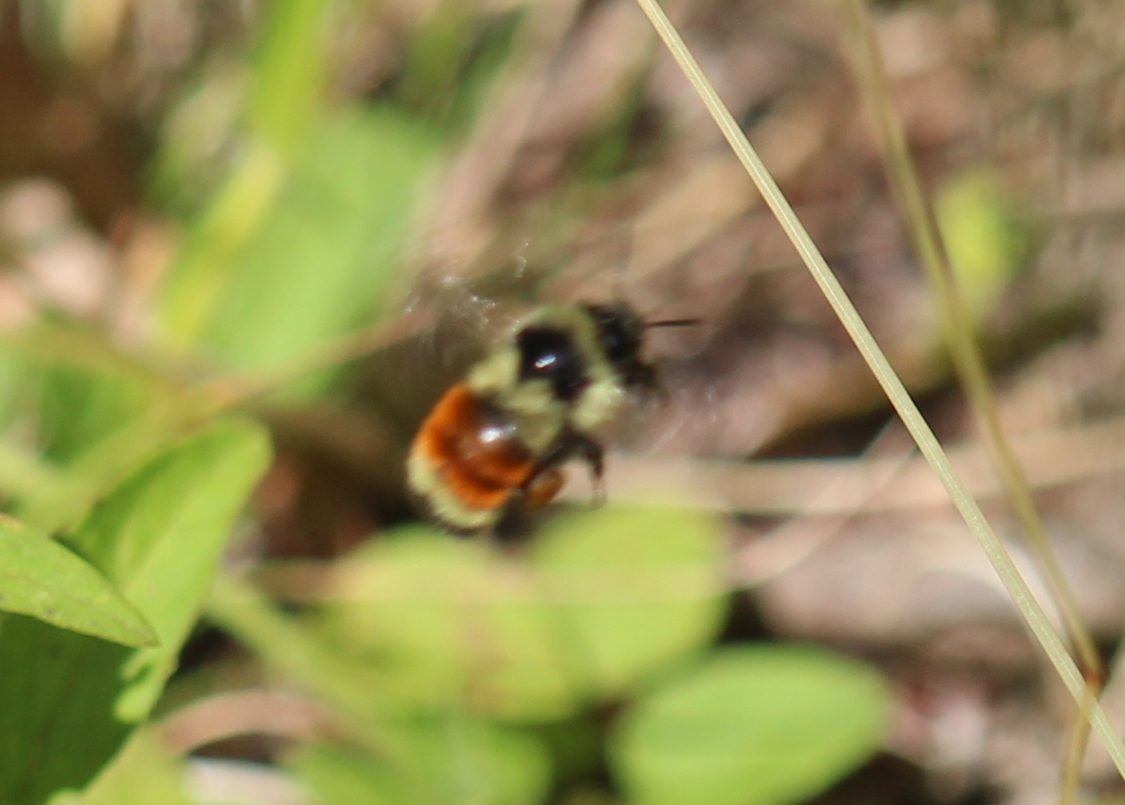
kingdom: Animalia
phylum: Arthropoda
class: Insecta
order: Hymenoptera
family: Apidae
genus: Bombus
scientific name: Bombus ternarius
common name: Tri-colored bumble bee
